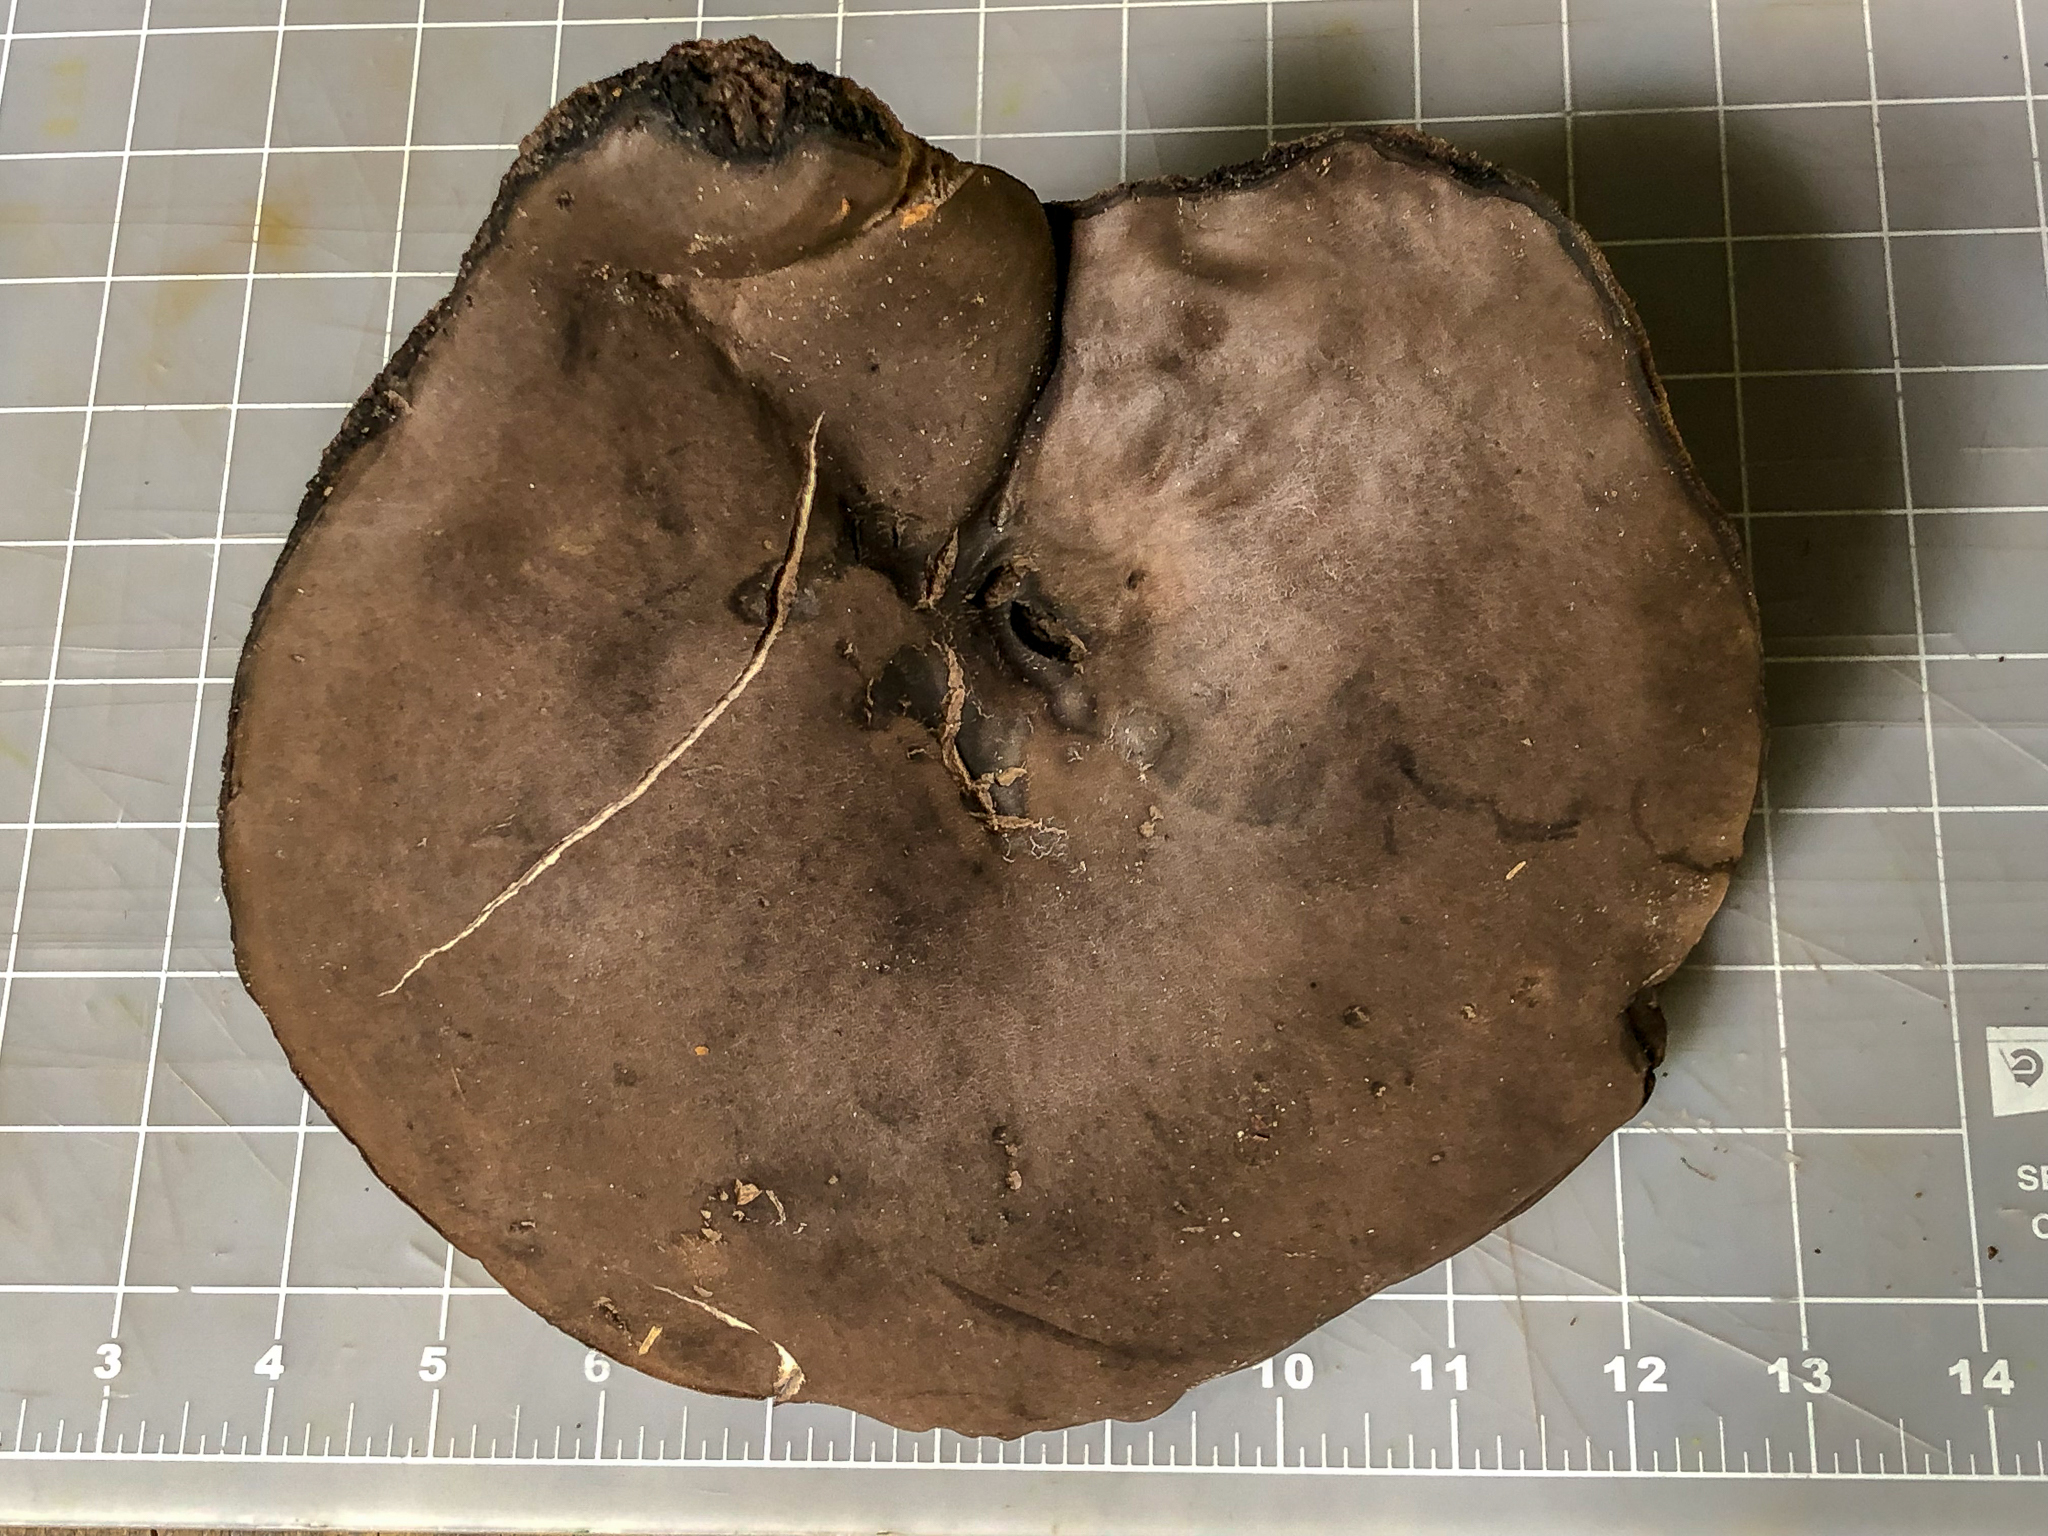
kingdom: Fungi
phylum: Basidiomycota
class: Agaricomycetes
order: Boletales
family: Boletaceae
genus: Tylopilus
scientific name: Tylopilus alboater
